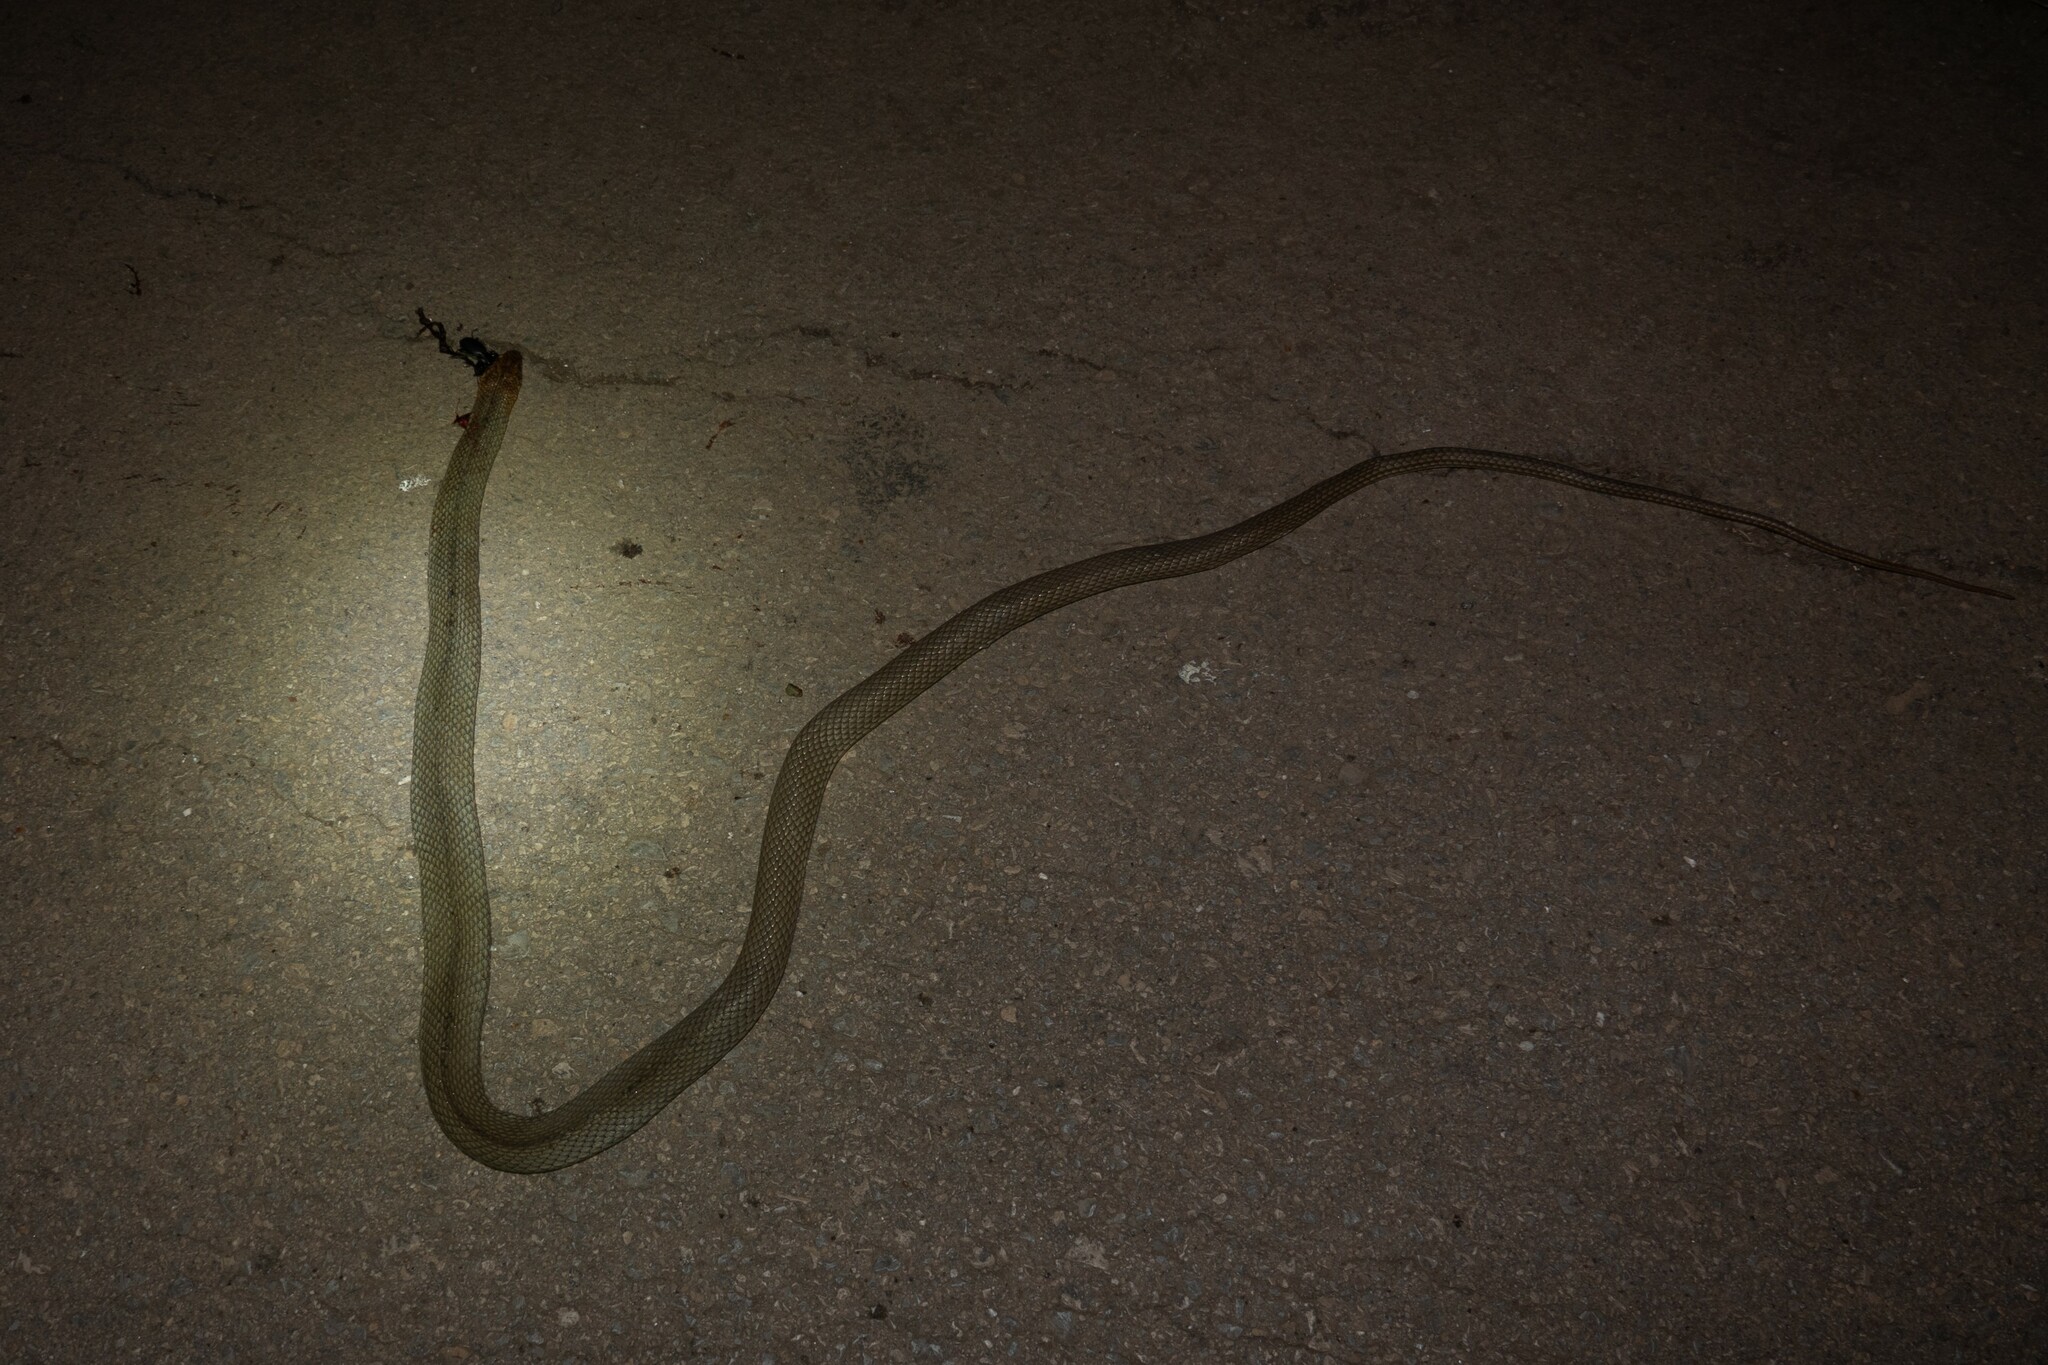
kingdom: Animalia
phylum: Chordata
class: Squamata
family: Colubridae
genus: Dolichophis
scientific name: Dolichophis caspius
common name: Large whip snake
